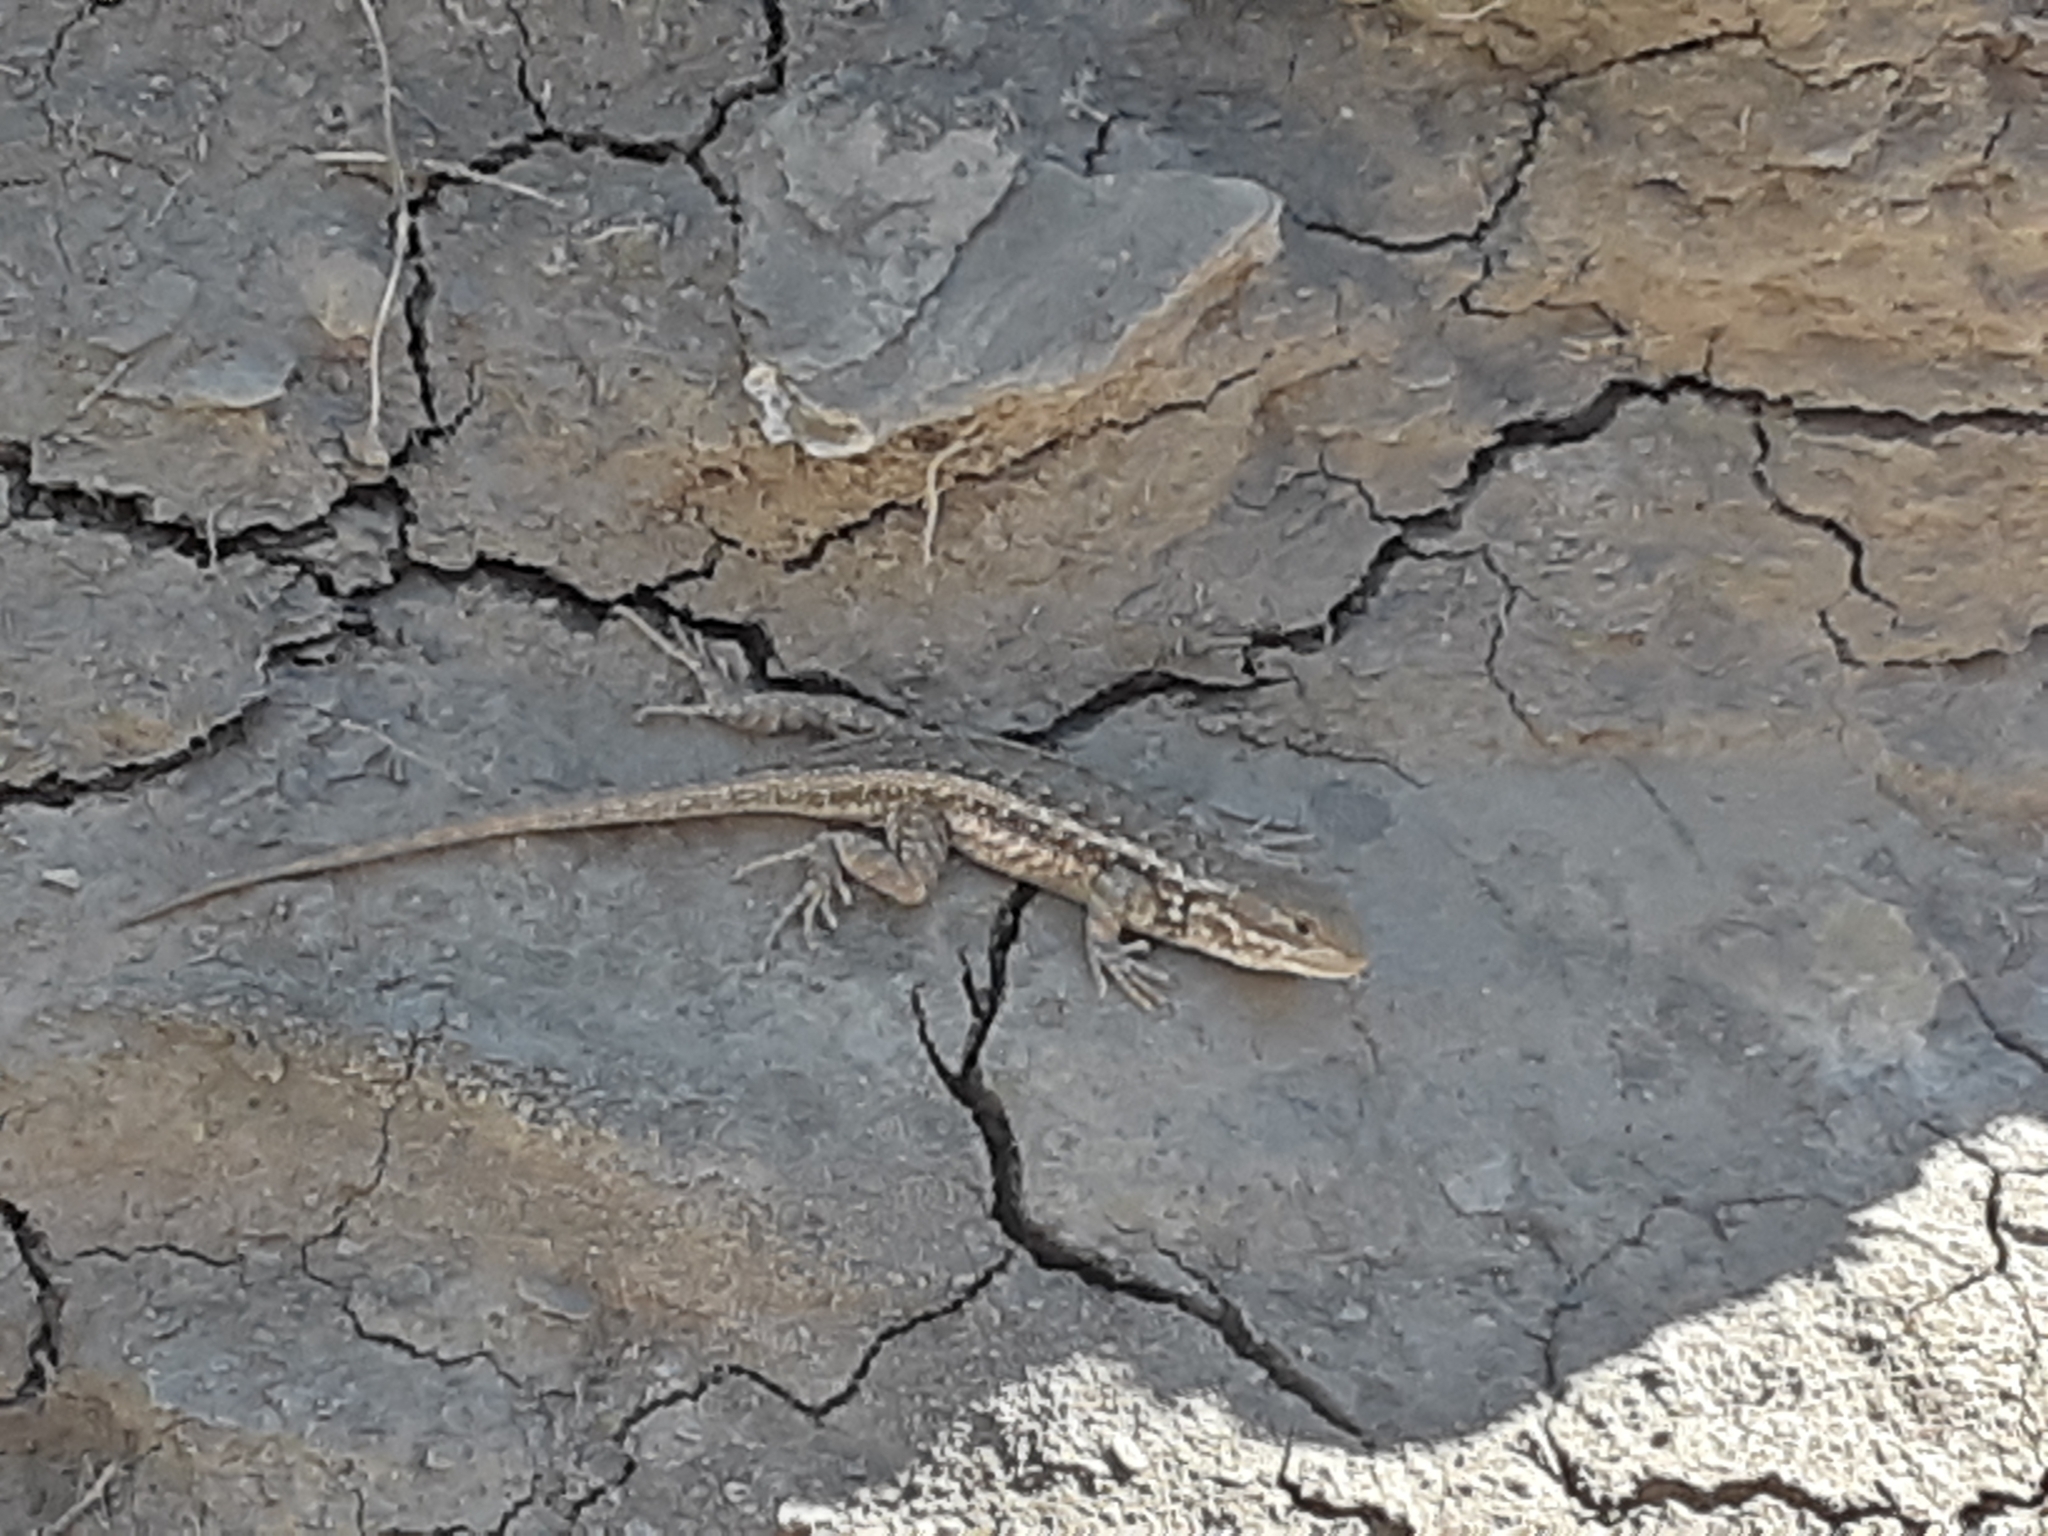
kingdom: Animalia
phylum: Chordata
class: Squamata
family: Phrynosomatidae
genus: Sceloporus
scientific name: Sceloporus graciosus
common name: Sagebrush lizard
